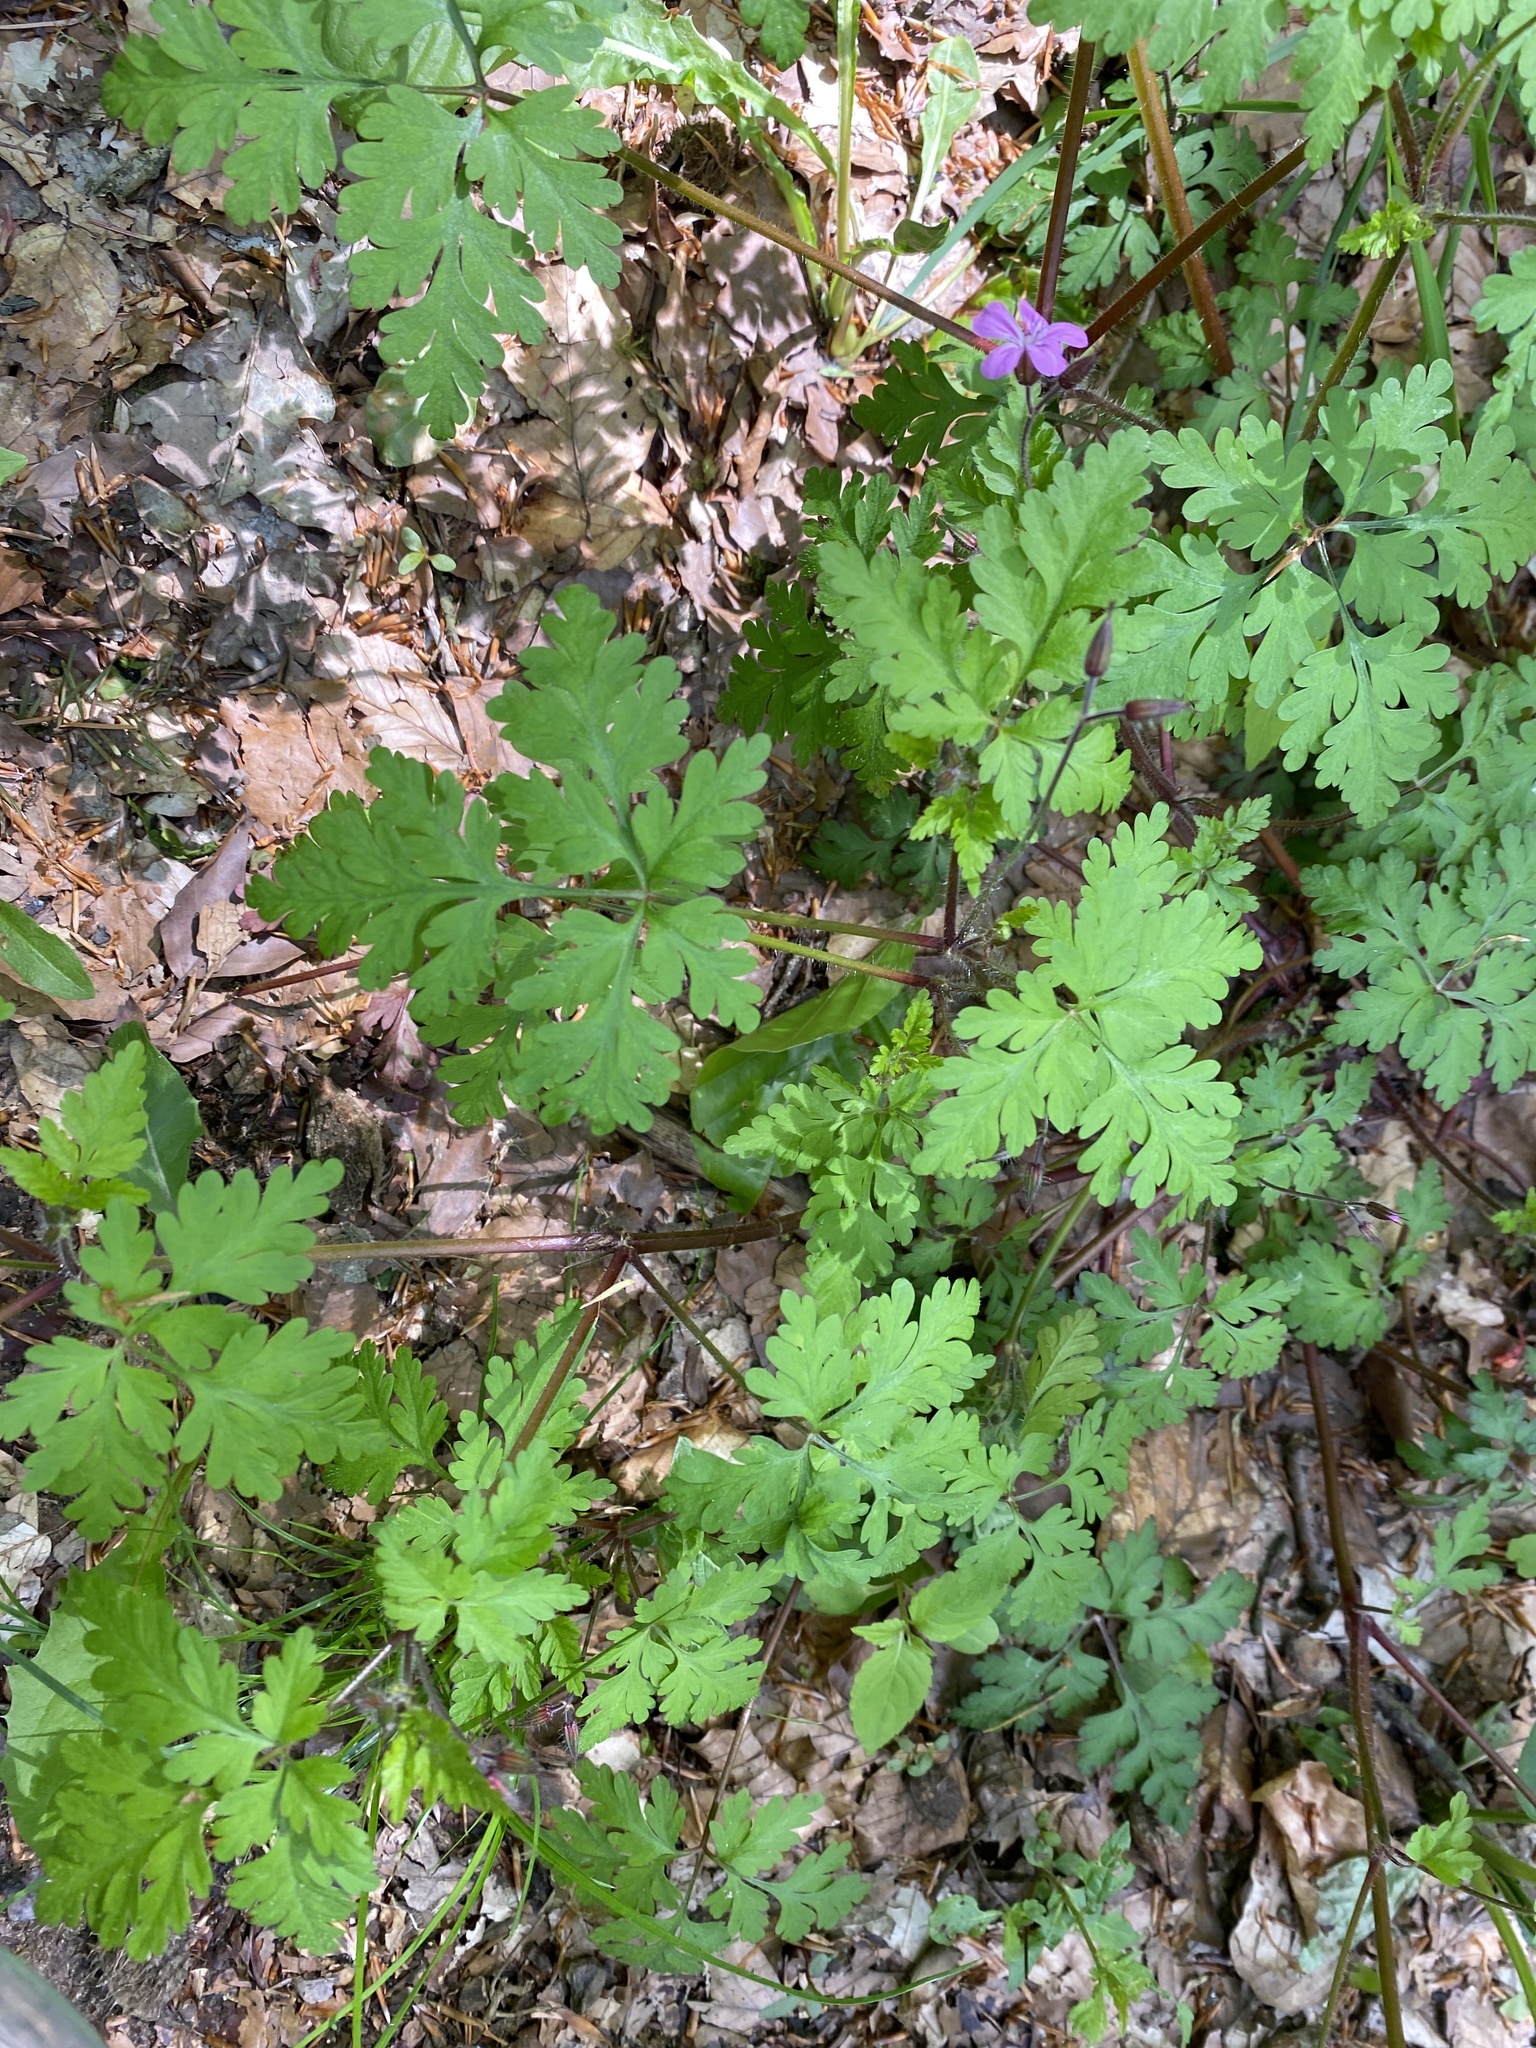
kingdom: Plantae
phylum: Tracheophyta
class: Magnoliopsida
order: Geraniales
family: Geraniaceae
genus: Geranium
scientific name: Geranium robertianum
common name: Herb-robert
